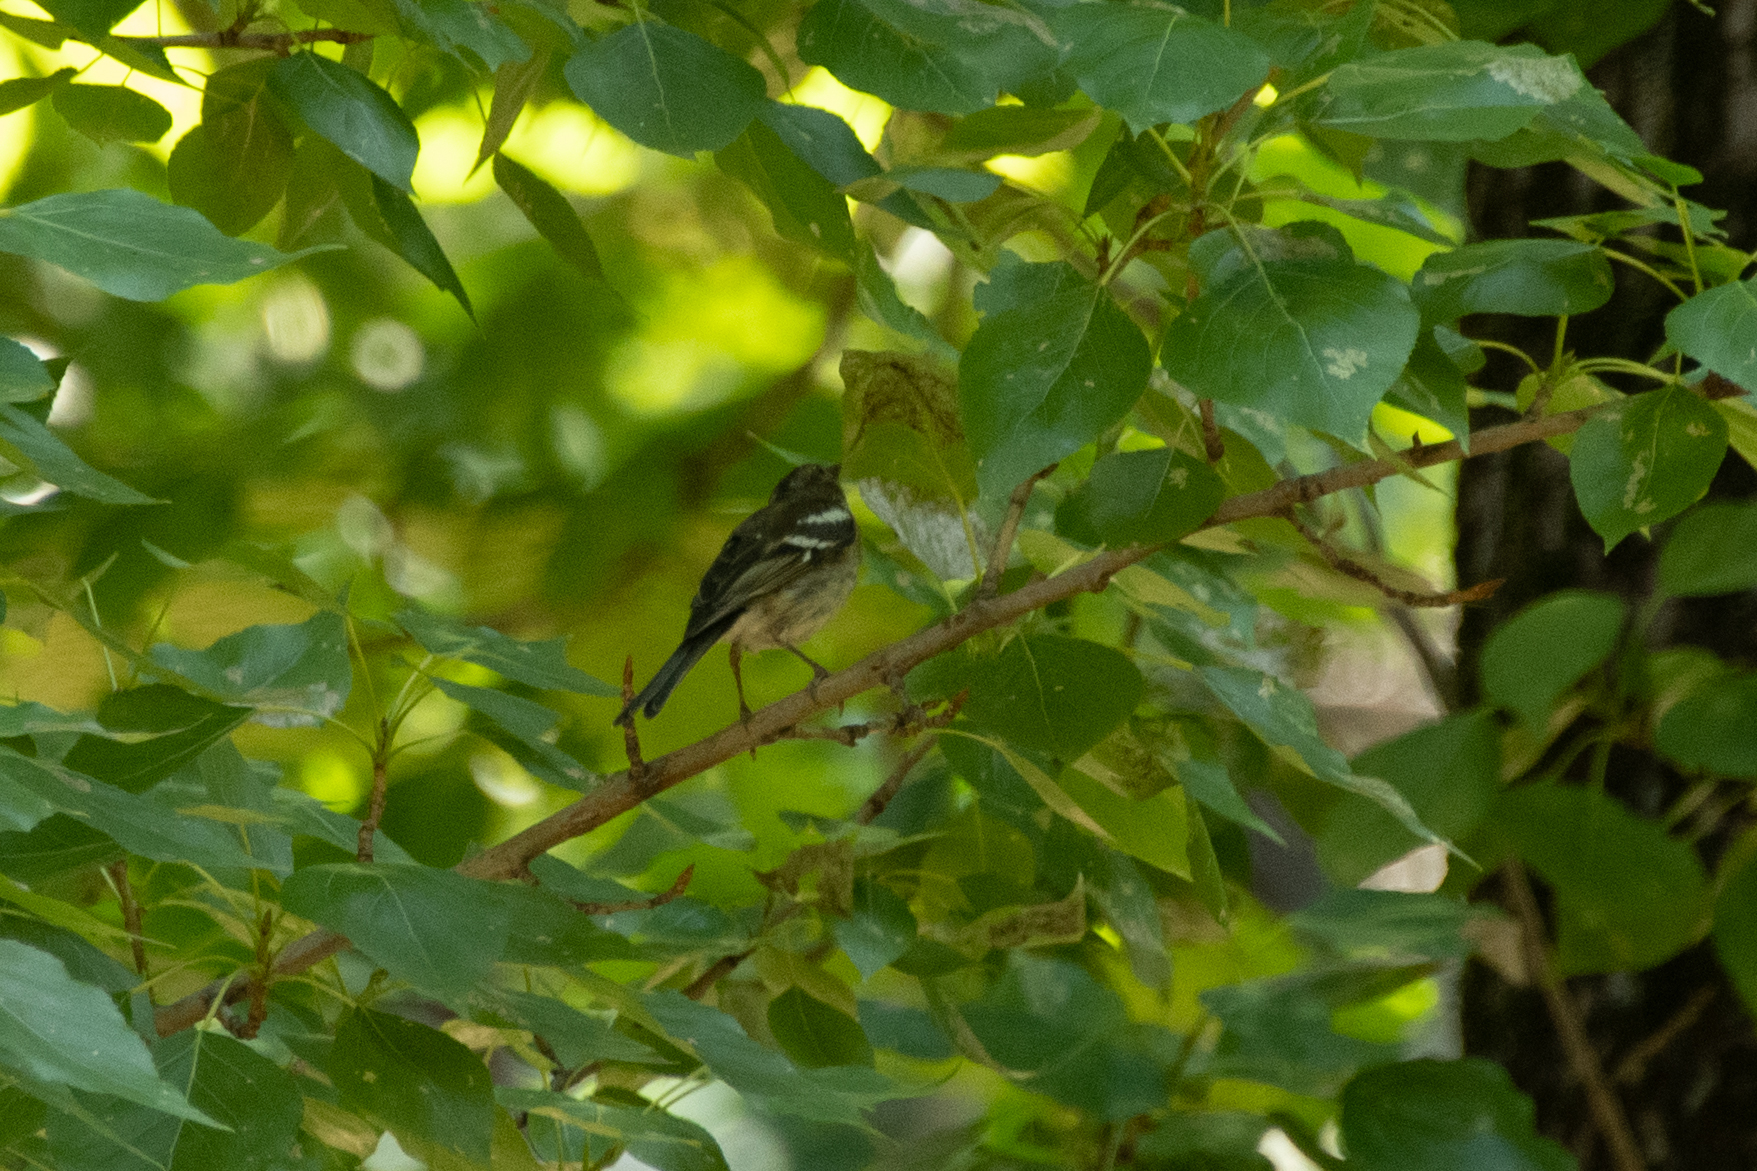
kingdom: Animalia
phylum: Chordata
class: Aves
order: Passeriformes
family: Fringillidae
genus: Fringilla
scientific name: Fringilla coelebs
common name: Common chaffinch
